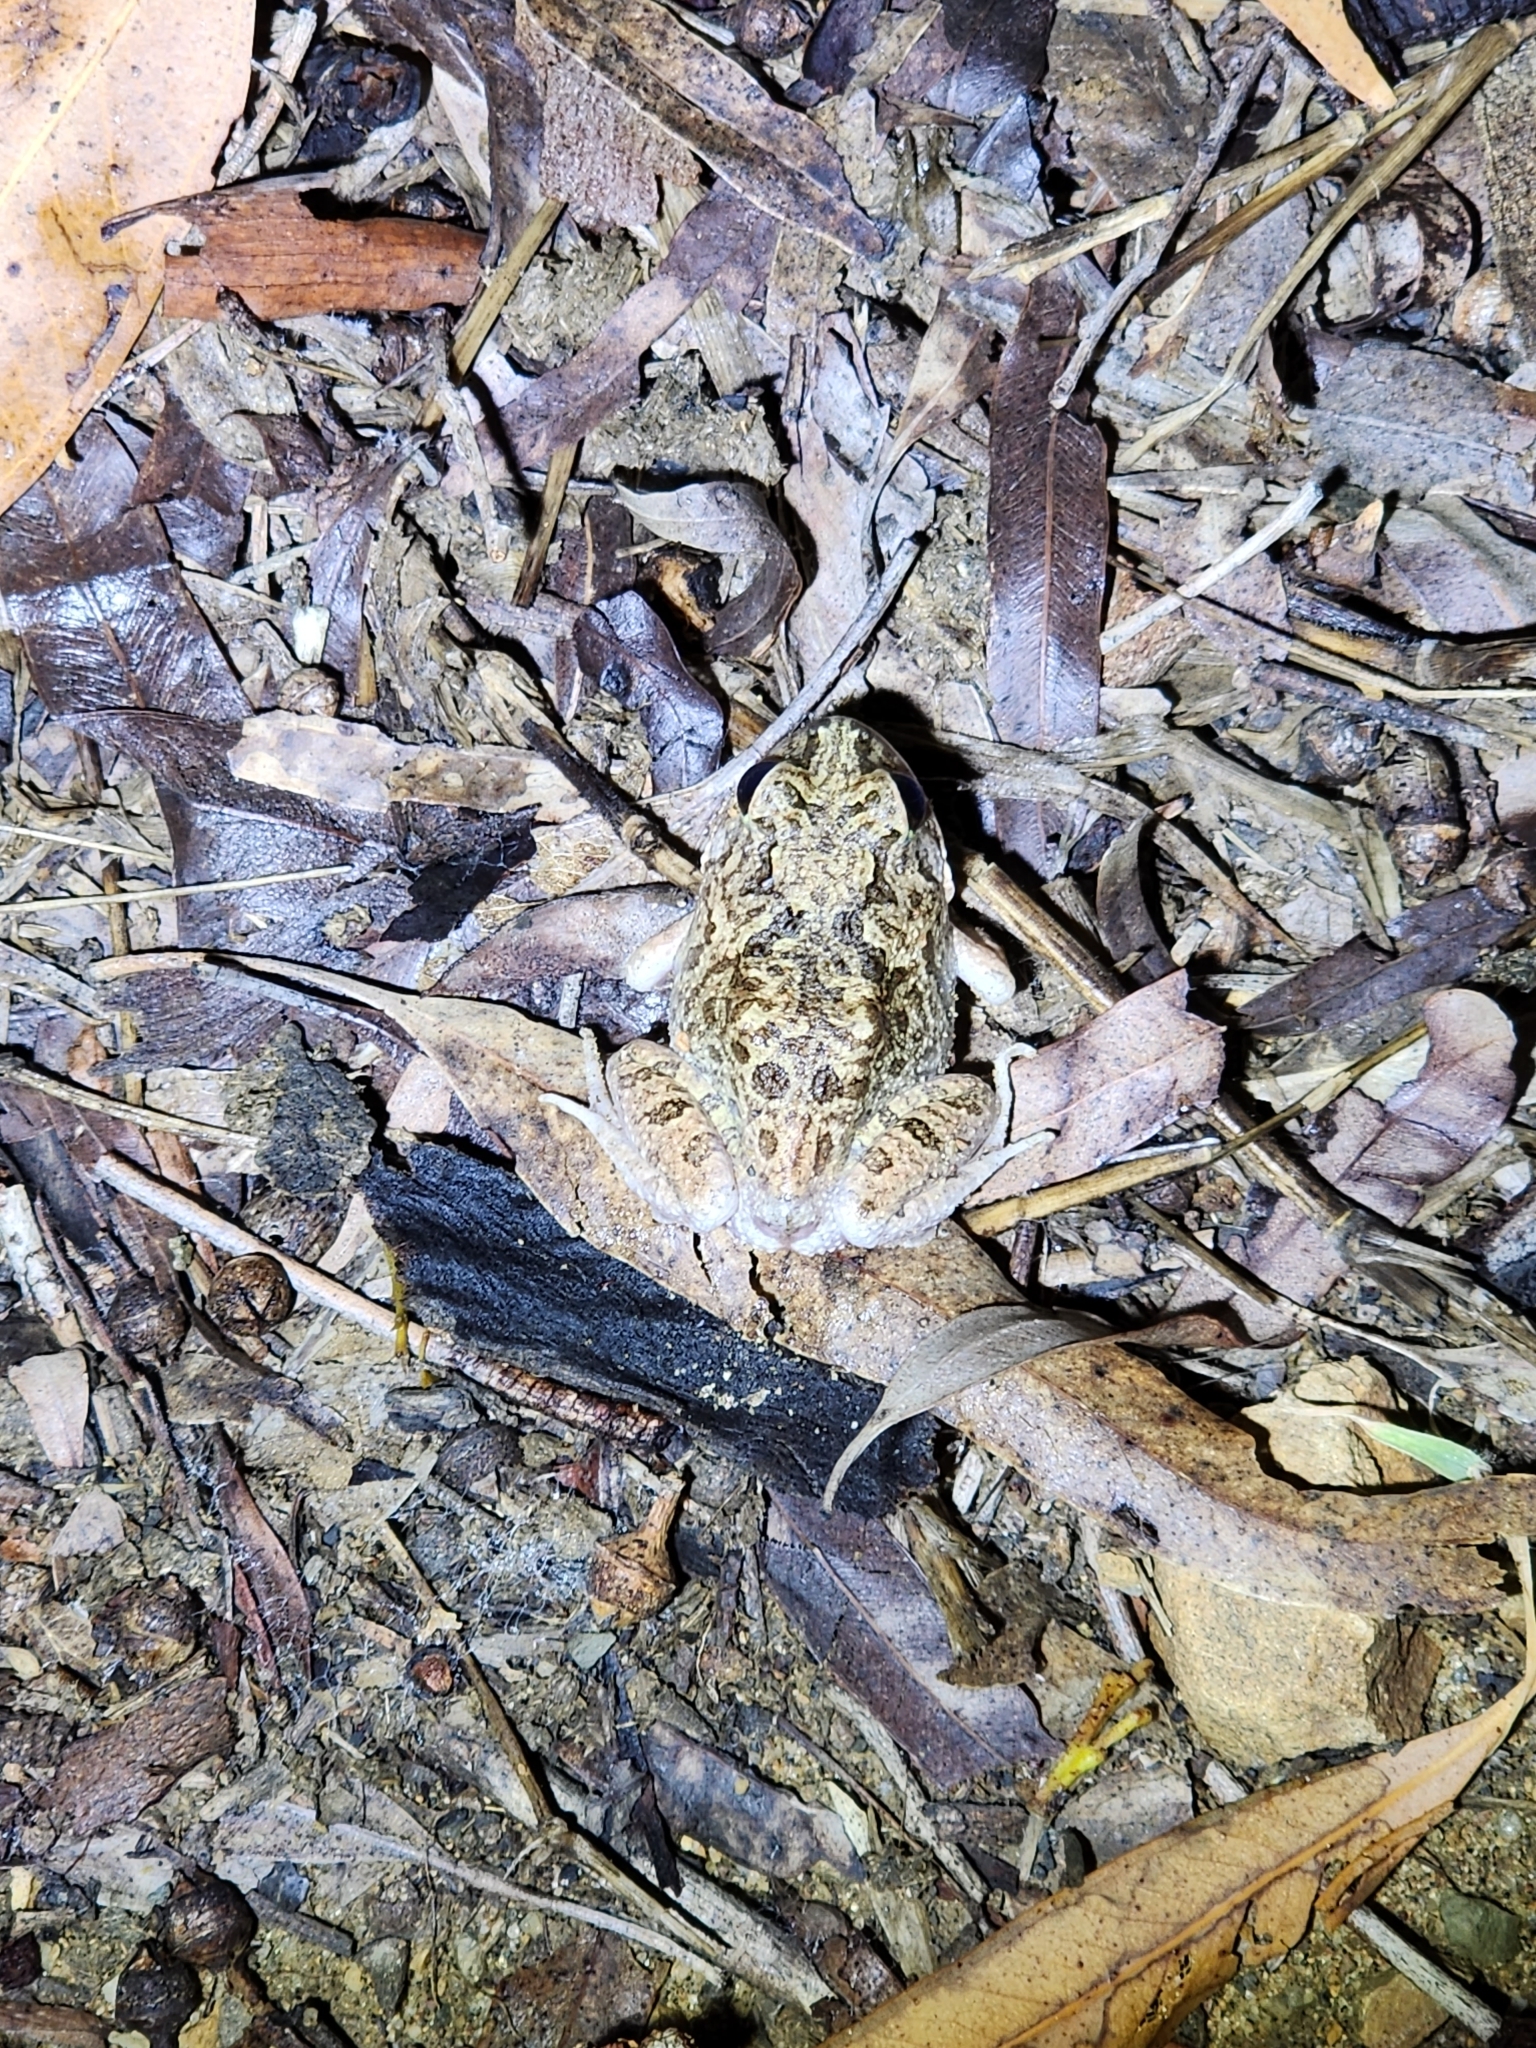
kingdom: Animalia
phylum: Chordata
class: Amphibia
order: Anura
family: Limnodynastidae
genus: Platyplectrum
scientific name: Platyplectrum ornatum
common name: Ornate burrowing frog
